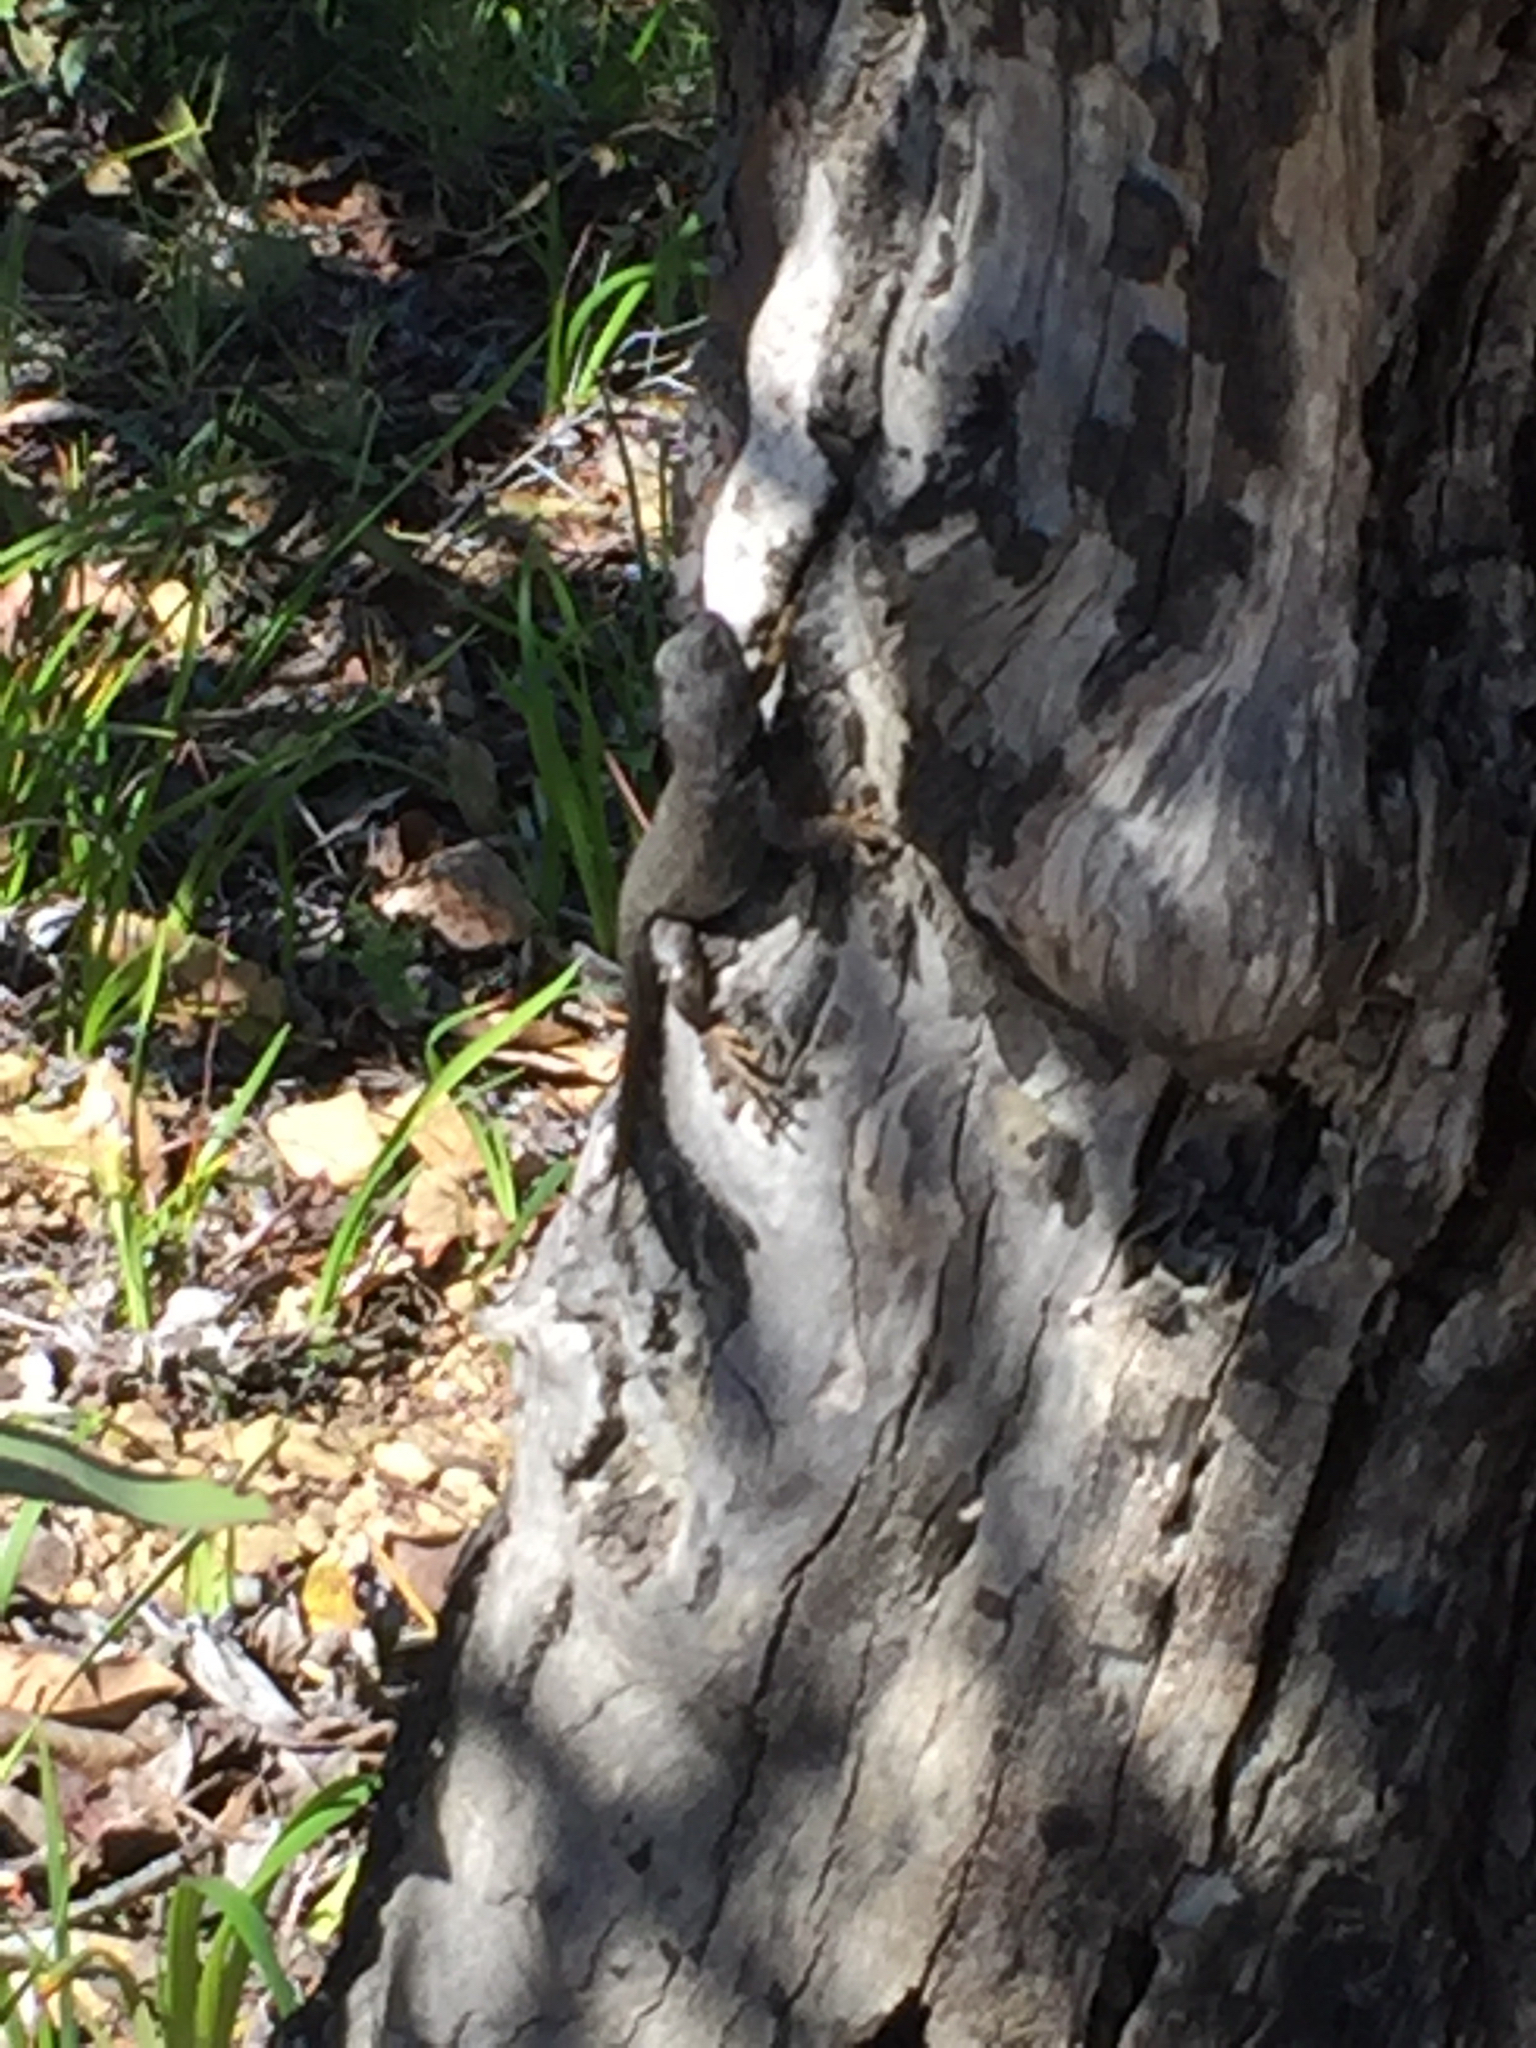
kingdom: Animalia
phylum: Chordata
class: Squamata
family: Phrynosomatidae
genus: Sceloporus
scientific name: Sceloporus occidentalis
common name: Western fence lizard
